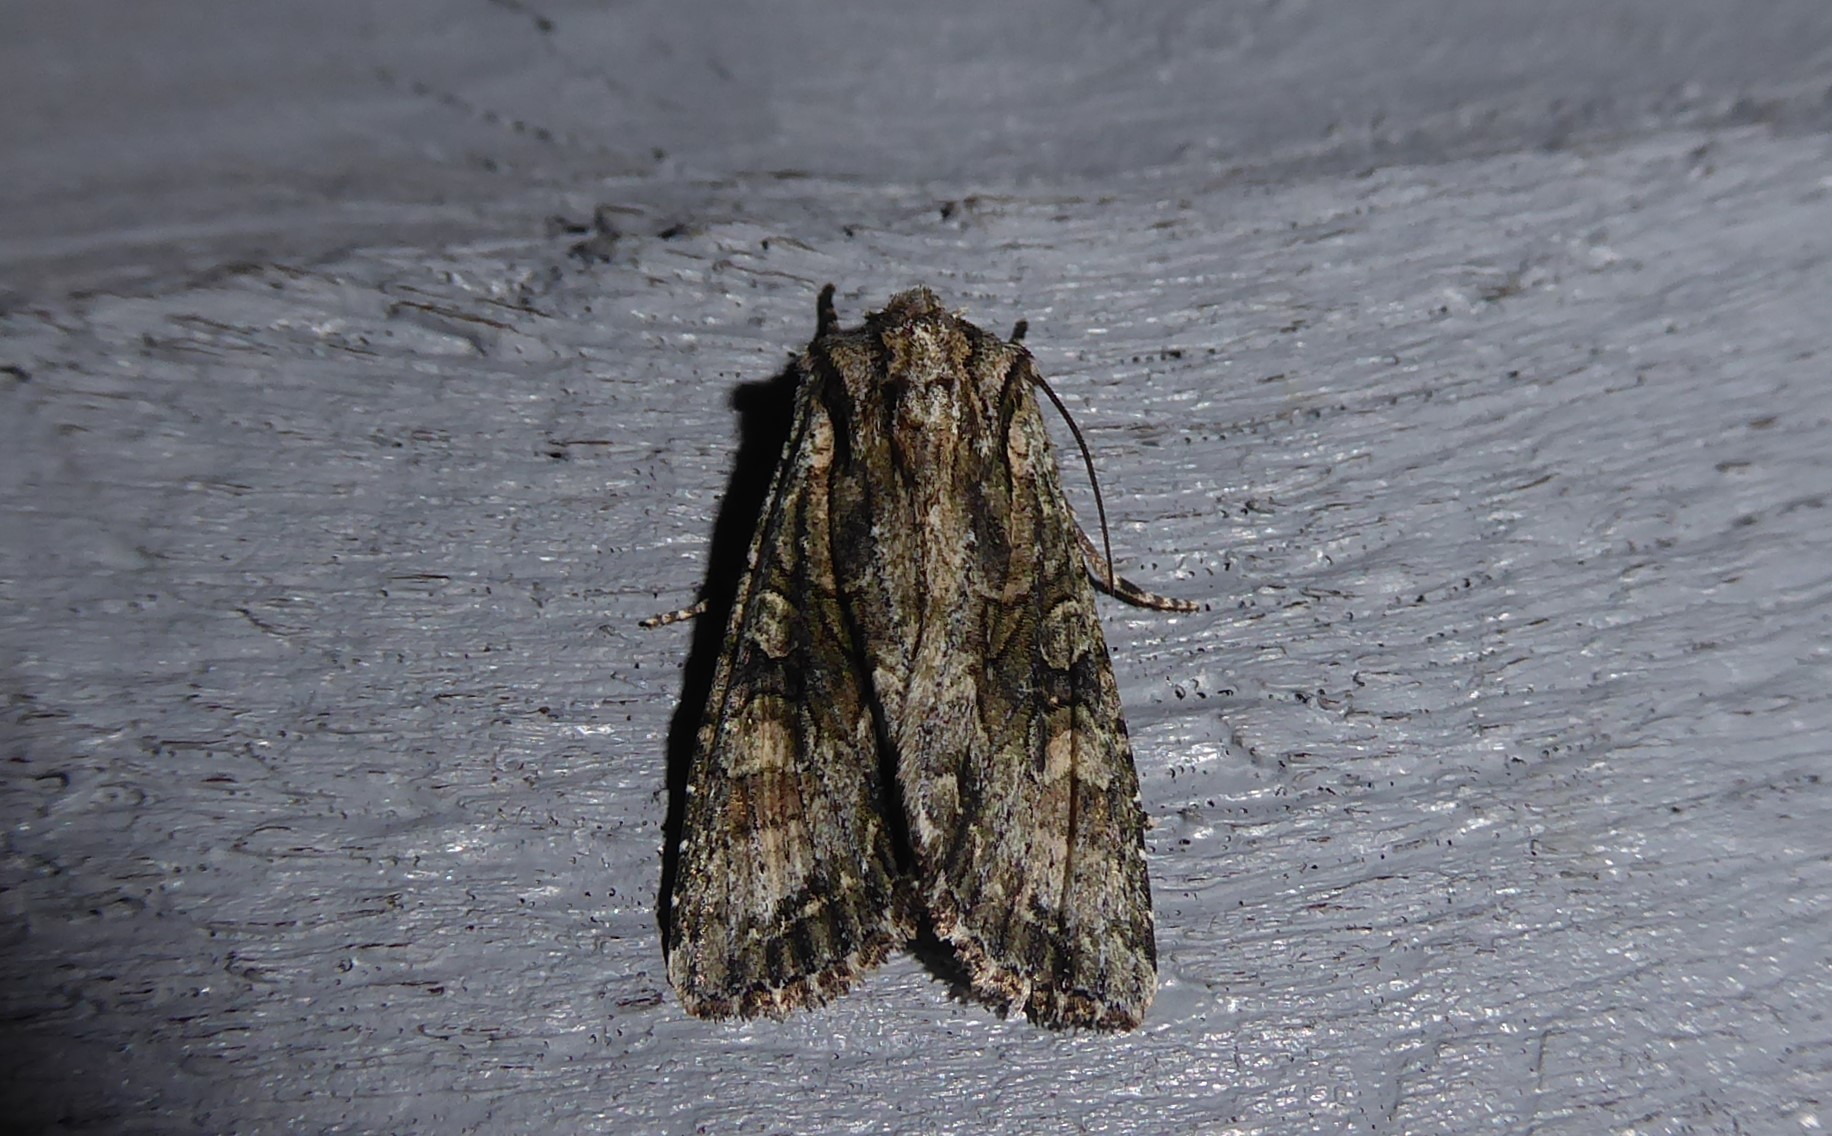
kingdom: Animalia
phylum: Arthropoda
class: Insecta
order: Lepidoptera
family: Noctuidae
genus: Ichneutica
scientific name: Ichneutica mutans
